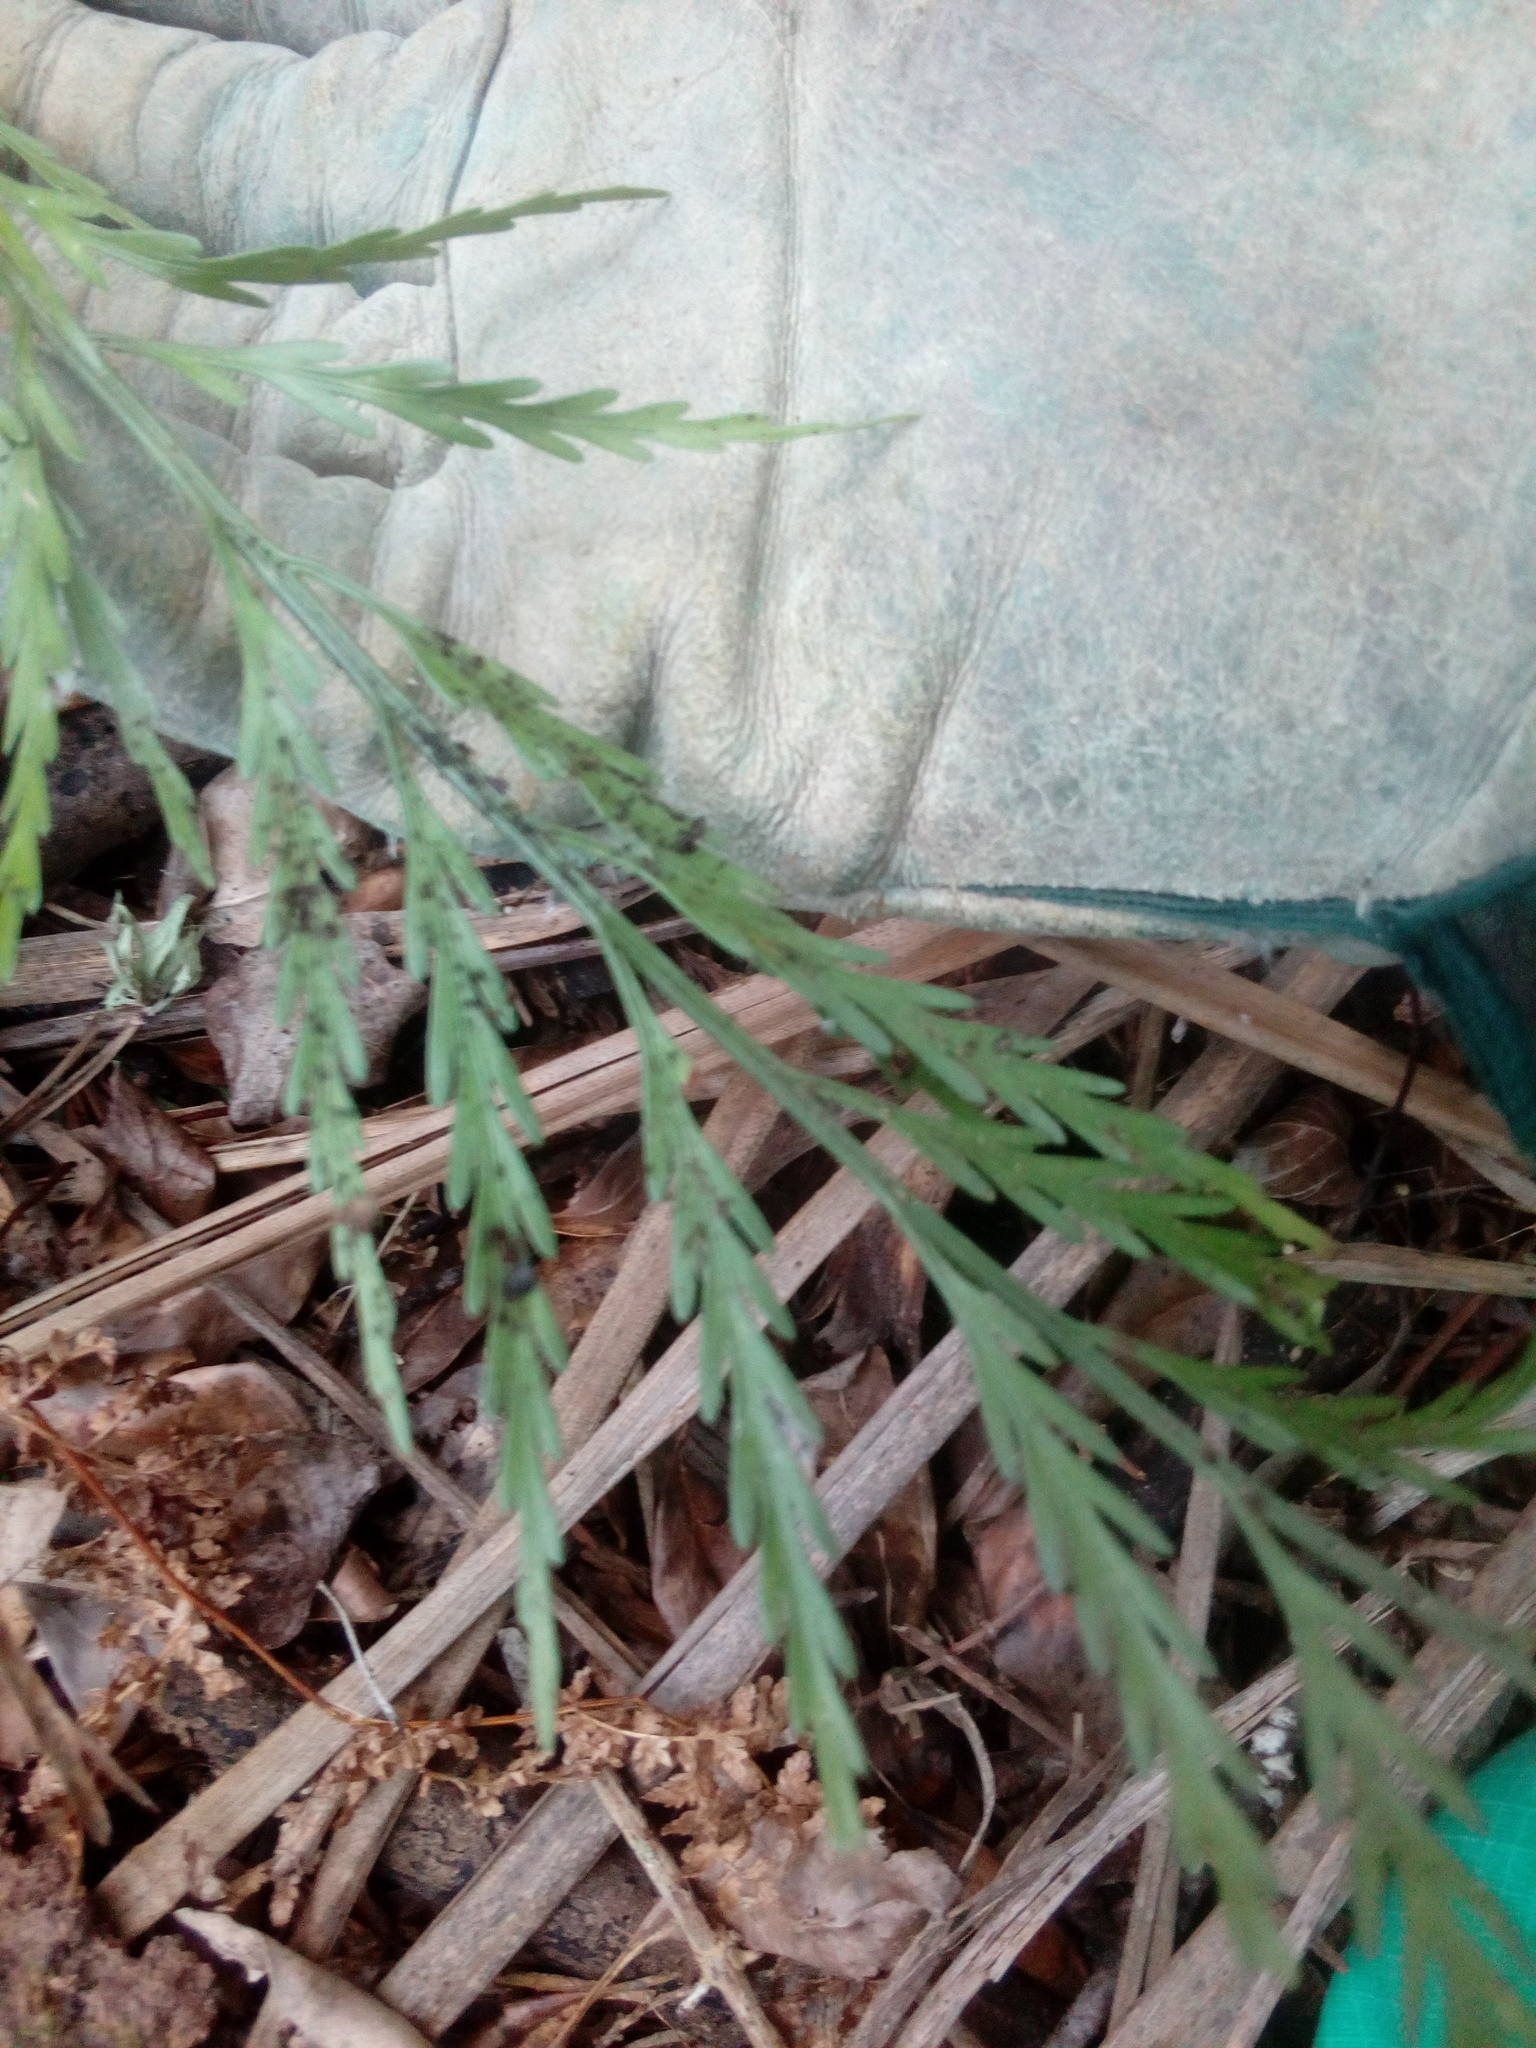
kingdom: Plantae
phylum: Tracheophyta
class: Polypodiopsida
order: Polypodiales
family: Aspleniaceae
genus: Asplenium
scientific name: Asplenium flaccidum
